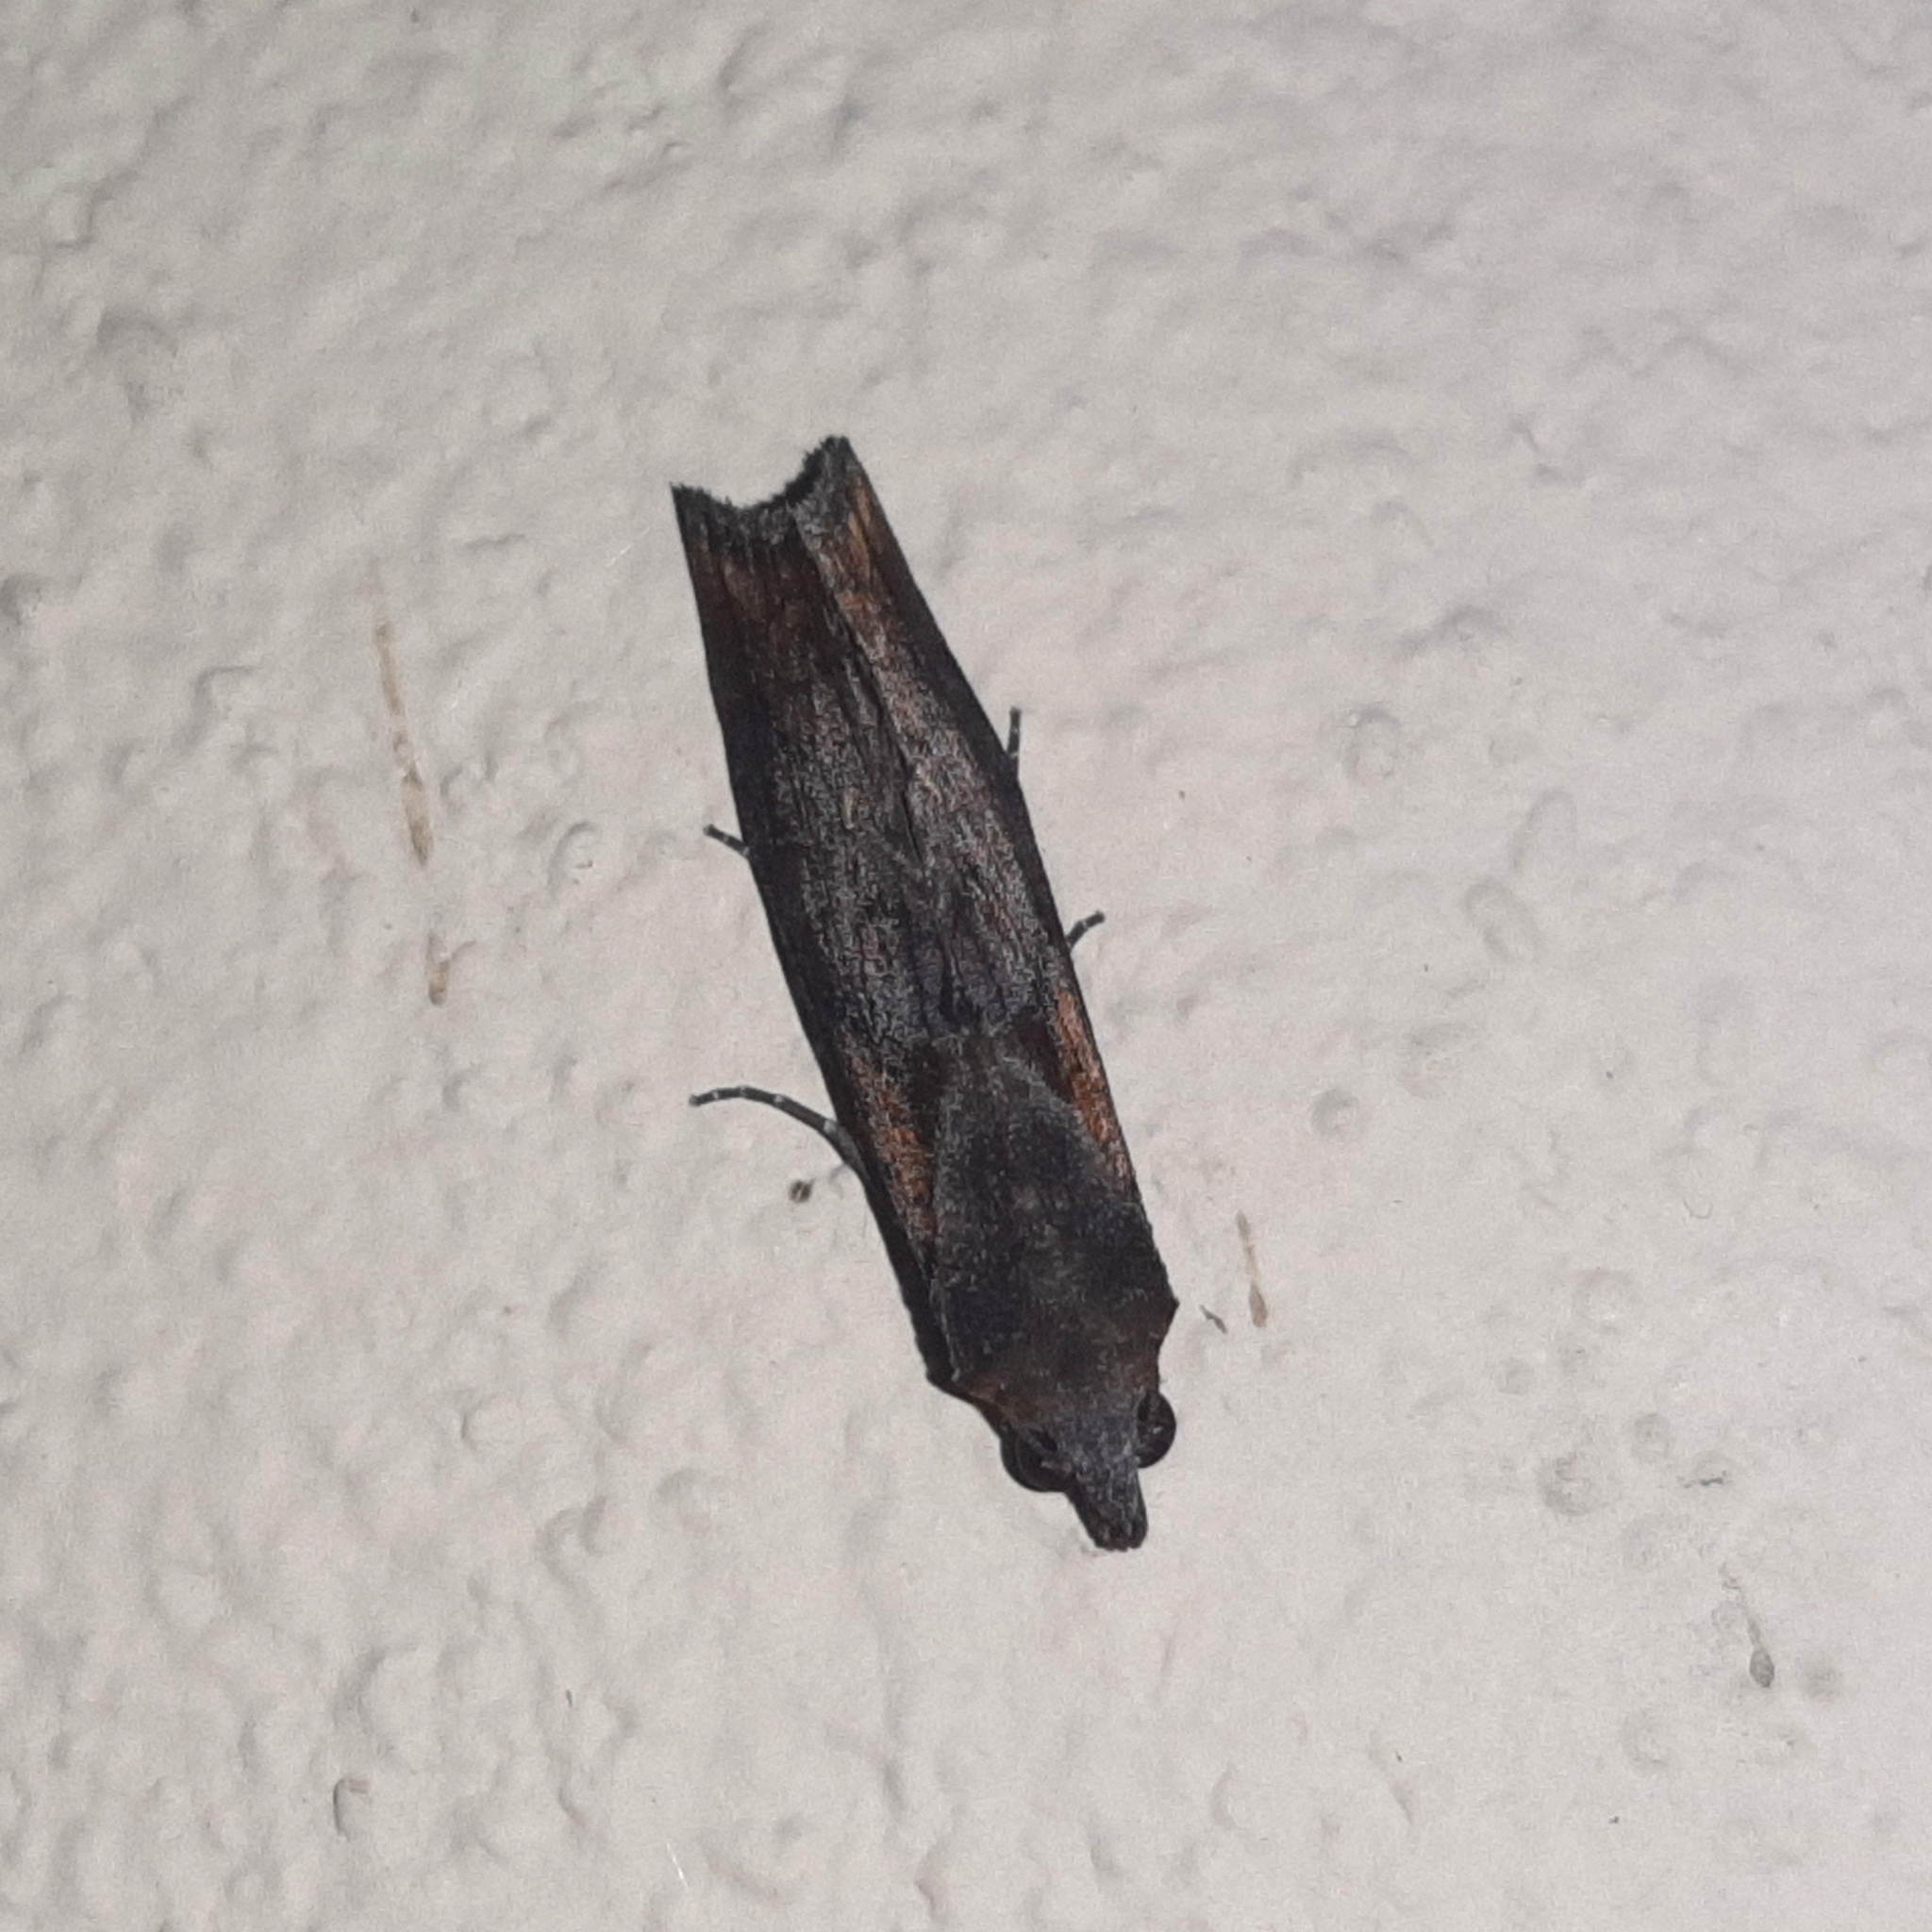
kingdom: Animalia
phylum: Arthropoda
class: Insecta
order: Lepidoptera
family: Erebidae
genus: Plusiodonta
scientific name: Plusiodonta incitans
